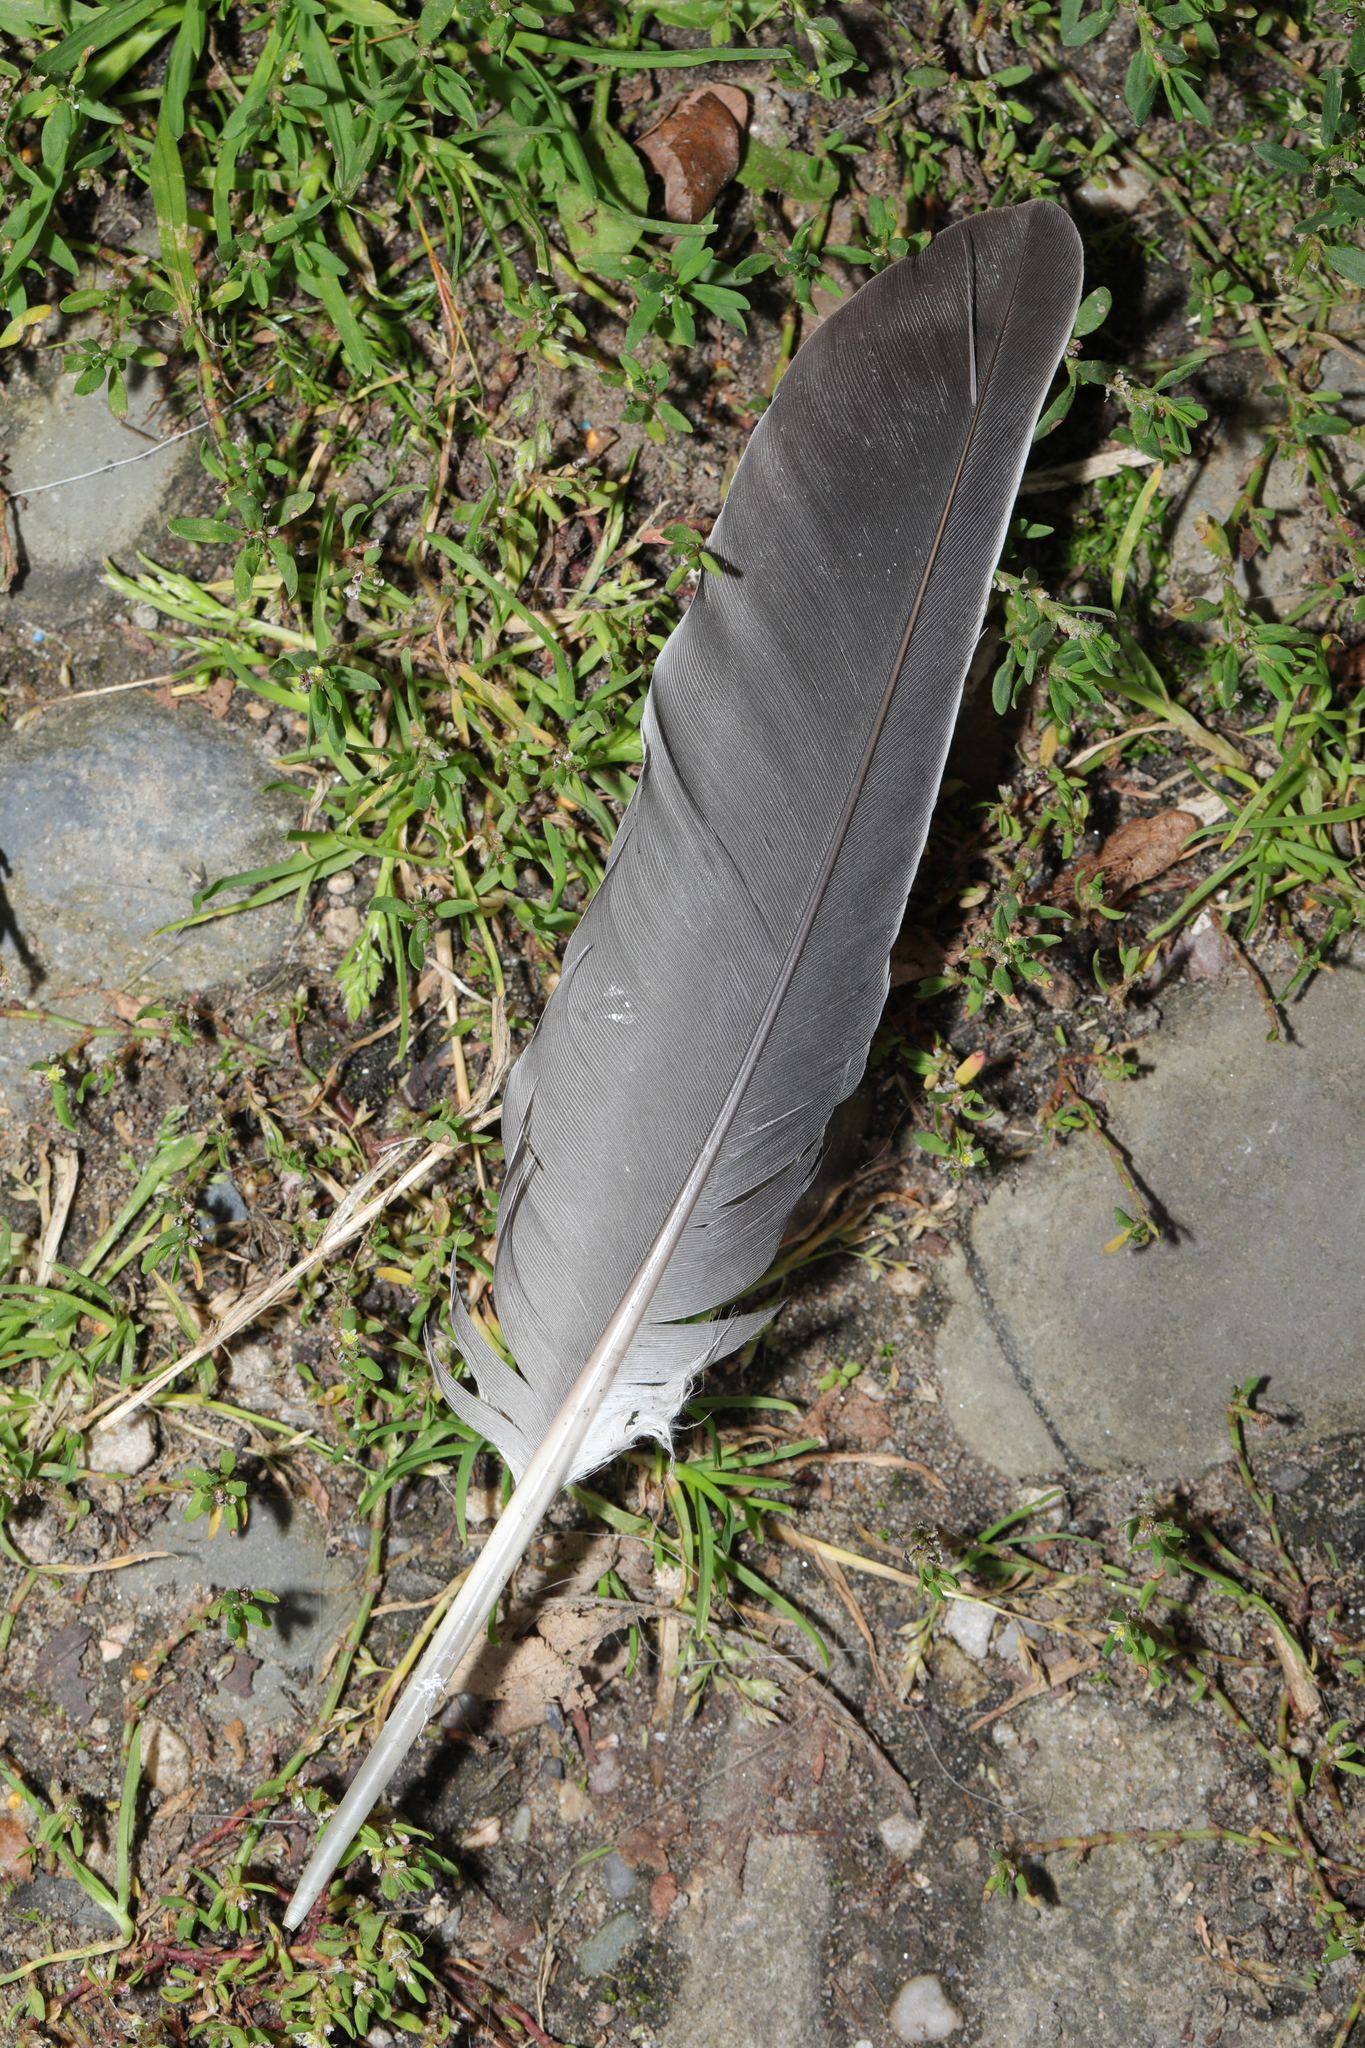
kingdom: Animalia
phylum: Chordata
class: Aves
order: Columbiformes
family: Columbidae
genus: Columba
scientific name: Columba palumbus
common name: Common wood pigeon
